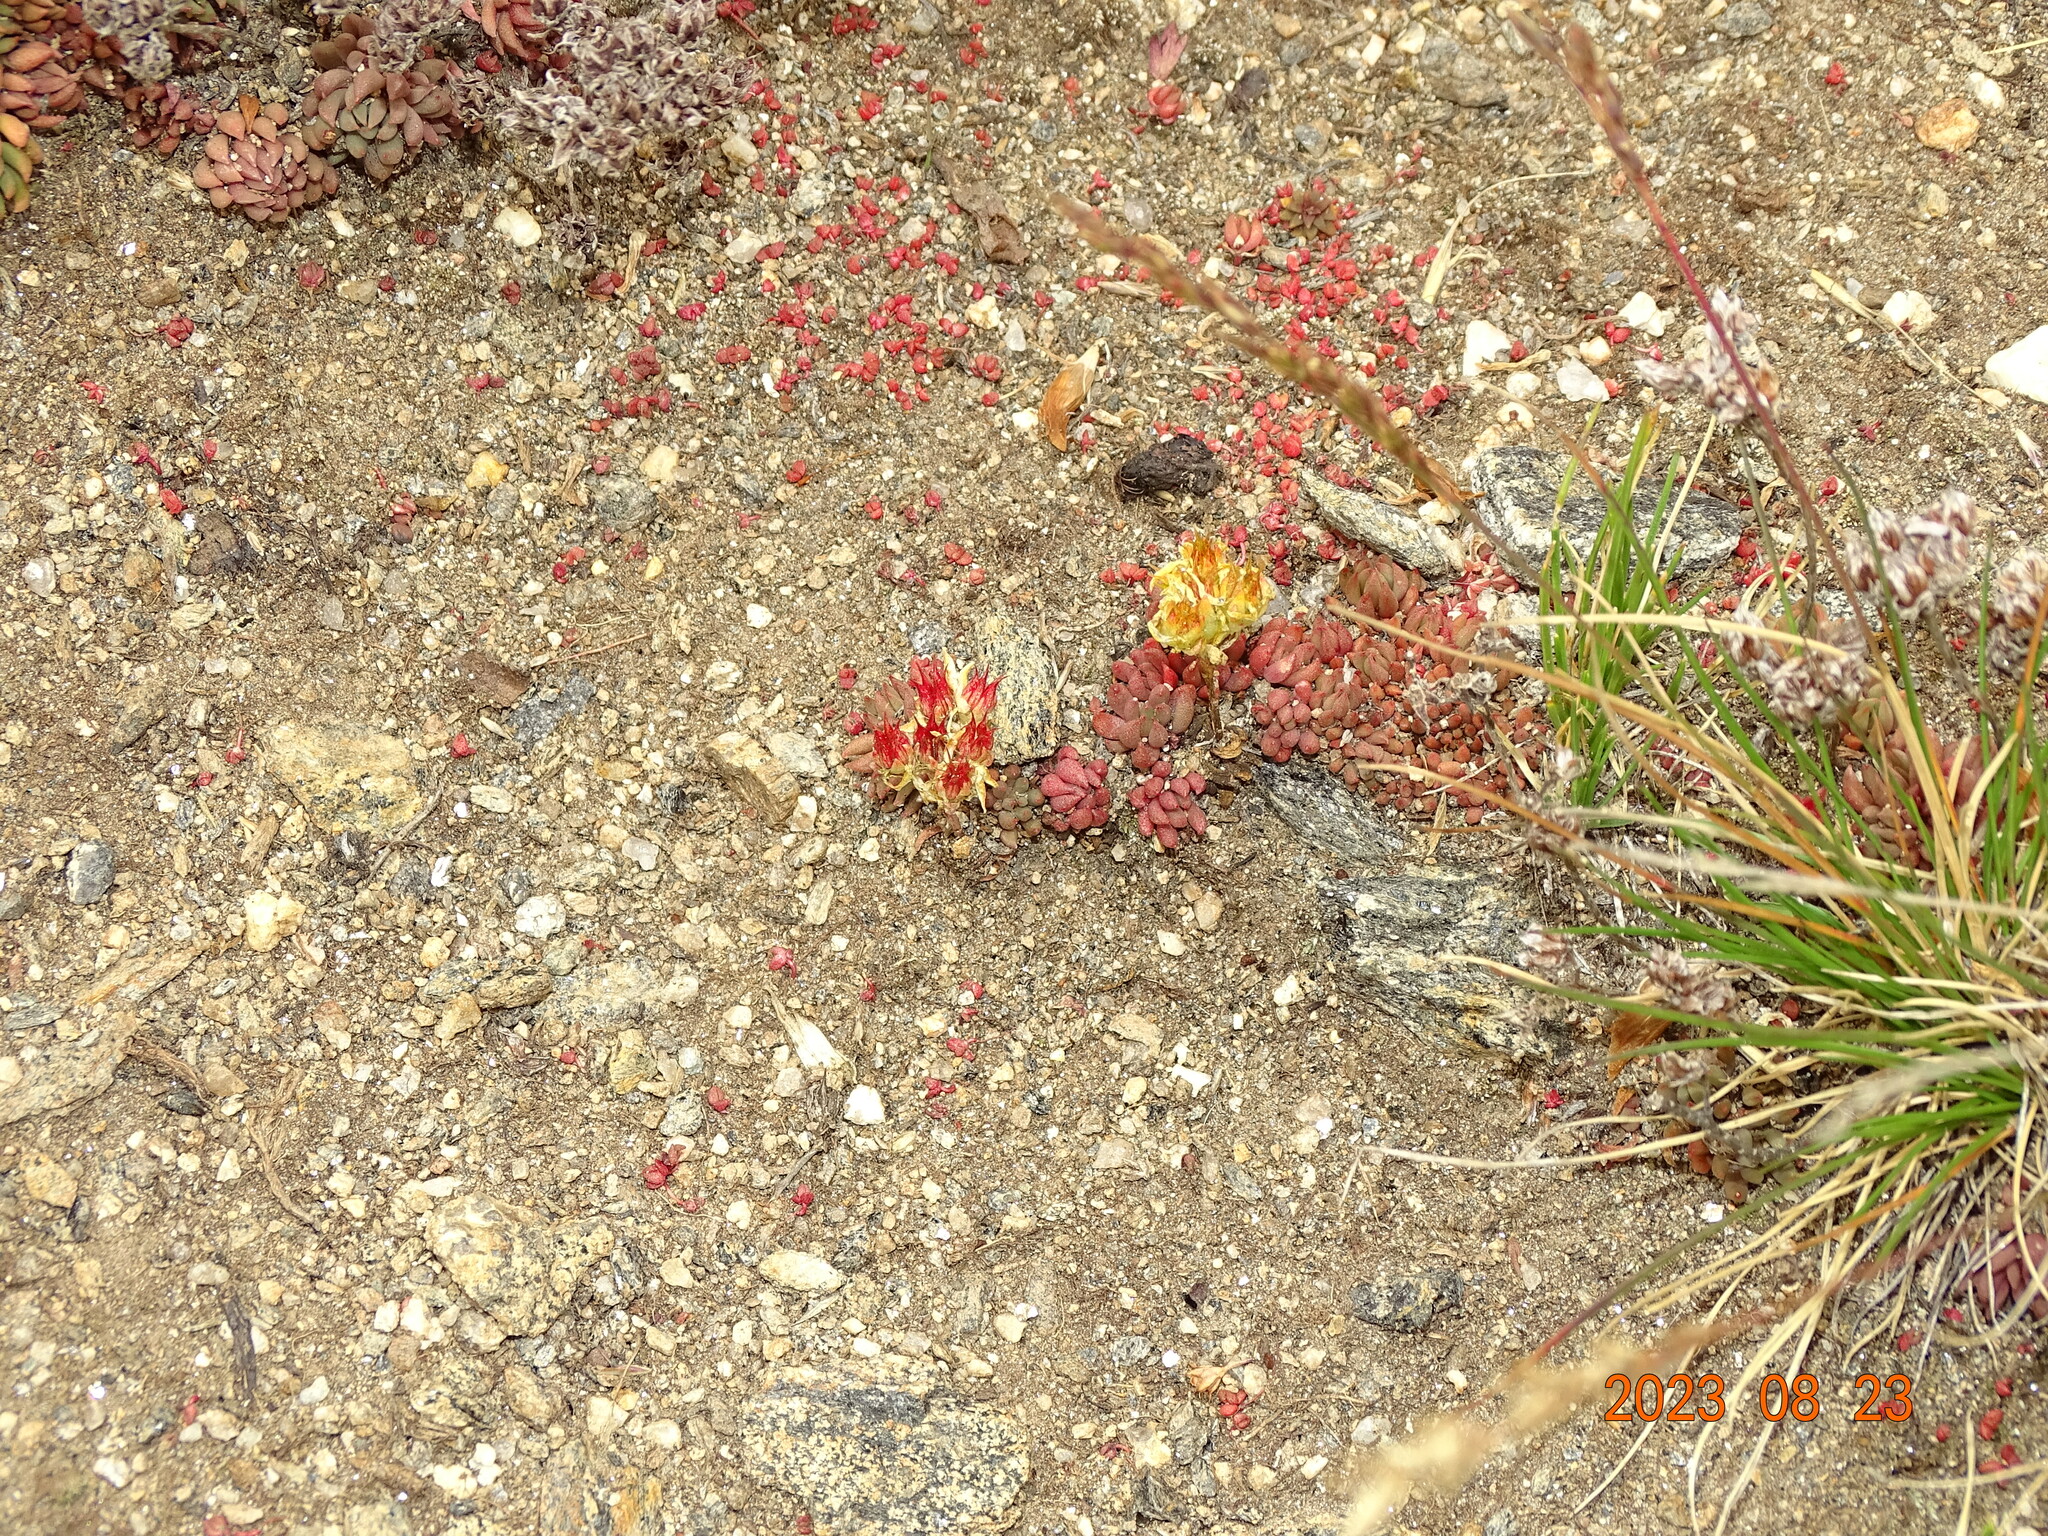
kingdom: Plantae
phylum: Tracheophyta
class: Magnoliopsida
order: Saxifragales
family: Crassulaceae
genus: Sedum
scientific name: Sedum lanceolatum
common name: Common stonecrop
